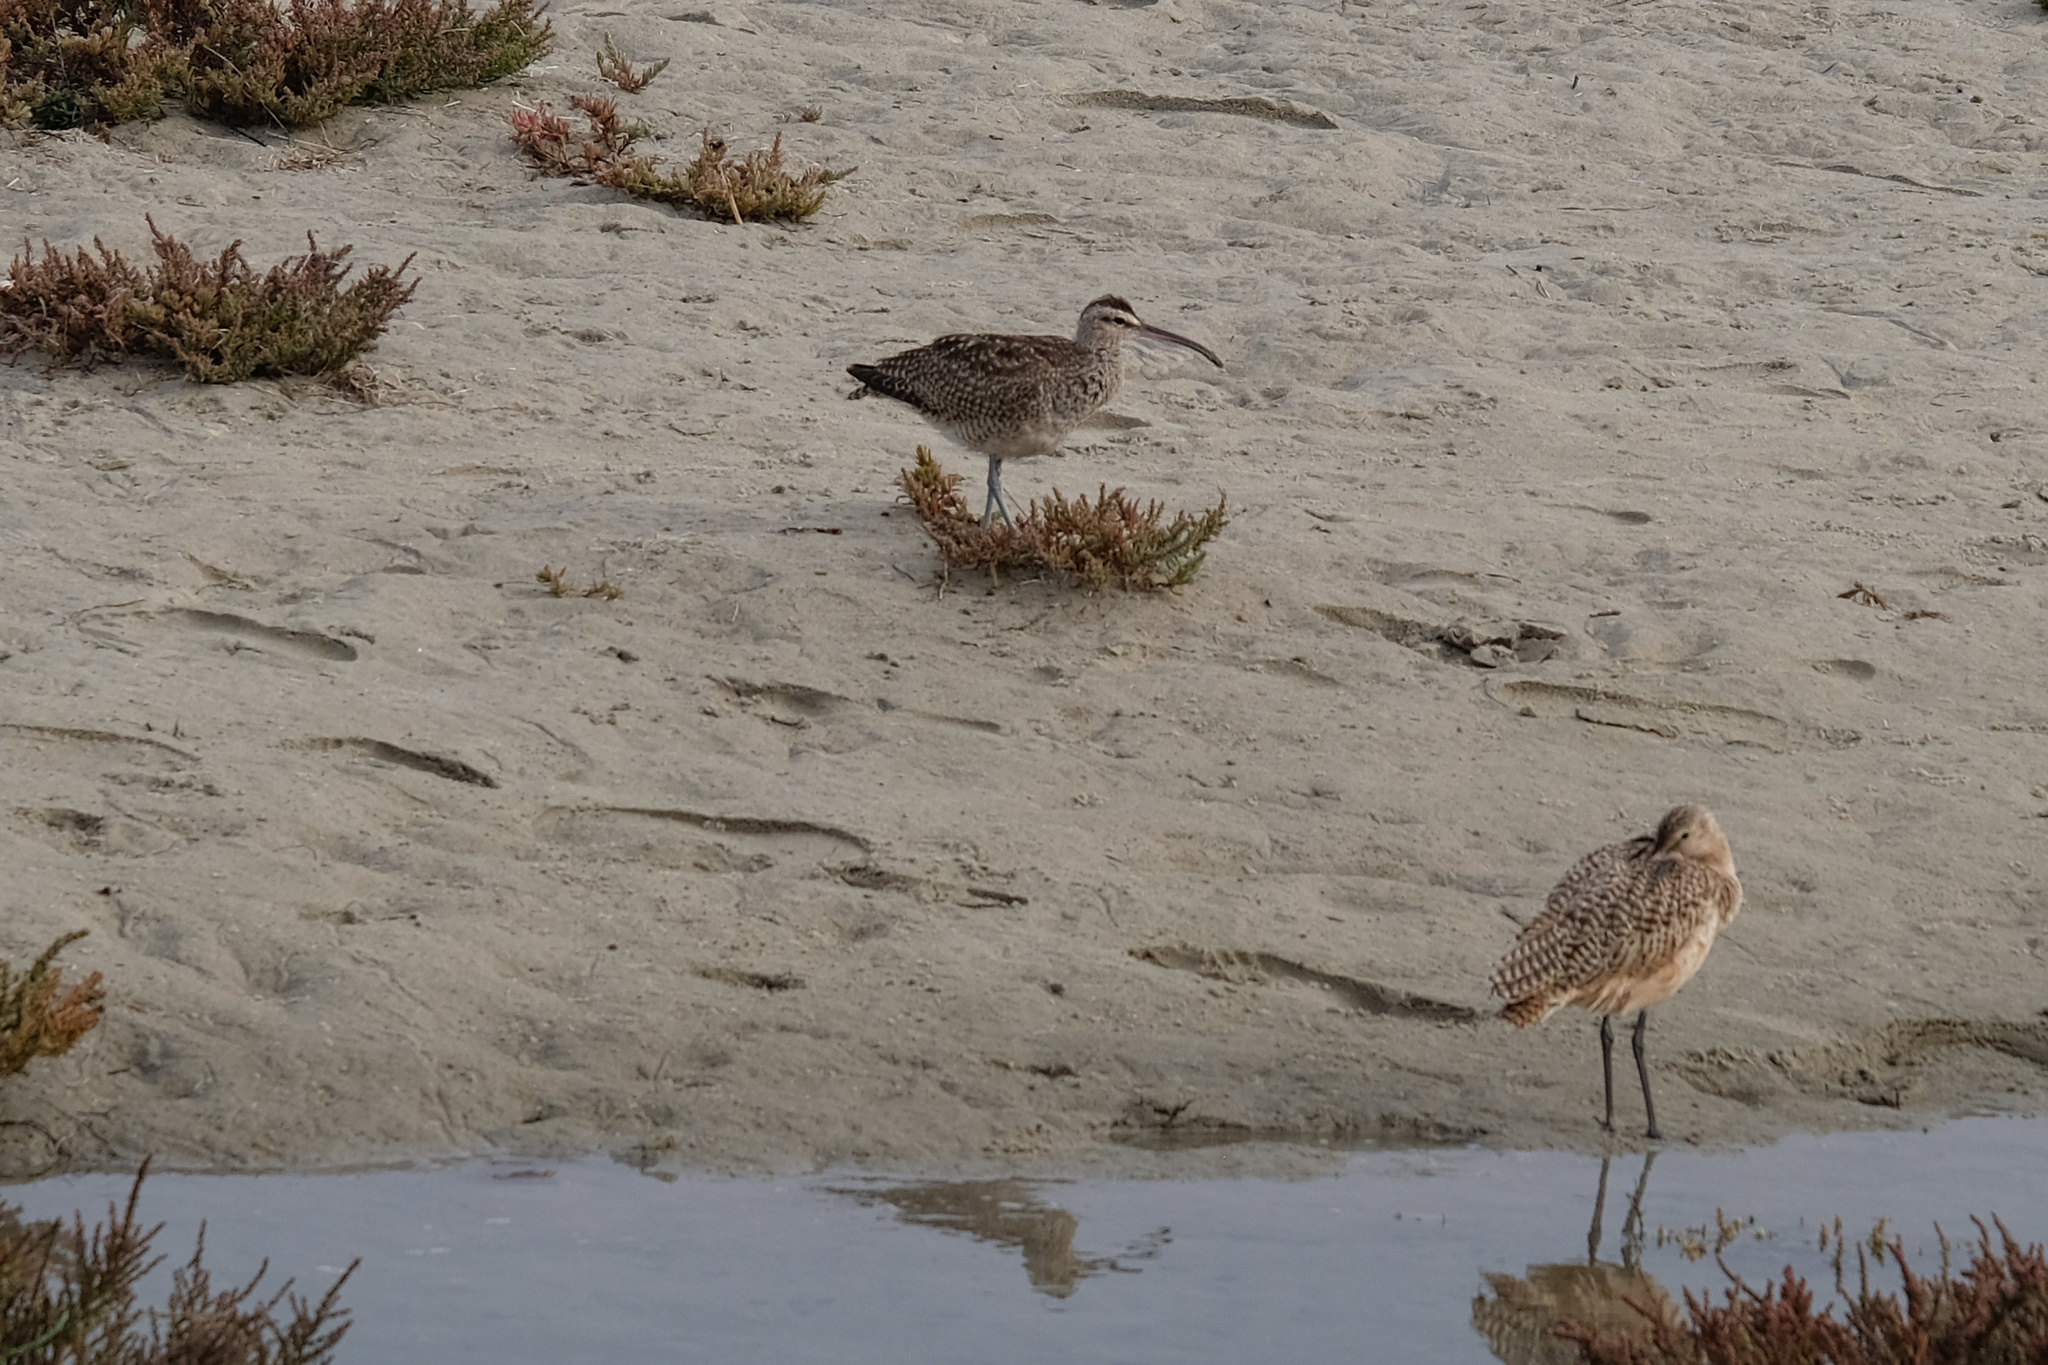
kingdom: Animalia
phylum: Chordata
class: Aves
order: Charadriiformes
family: Scolopacidae
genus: Numenius
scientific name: Numenius phaeopus
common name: Whimbrel
